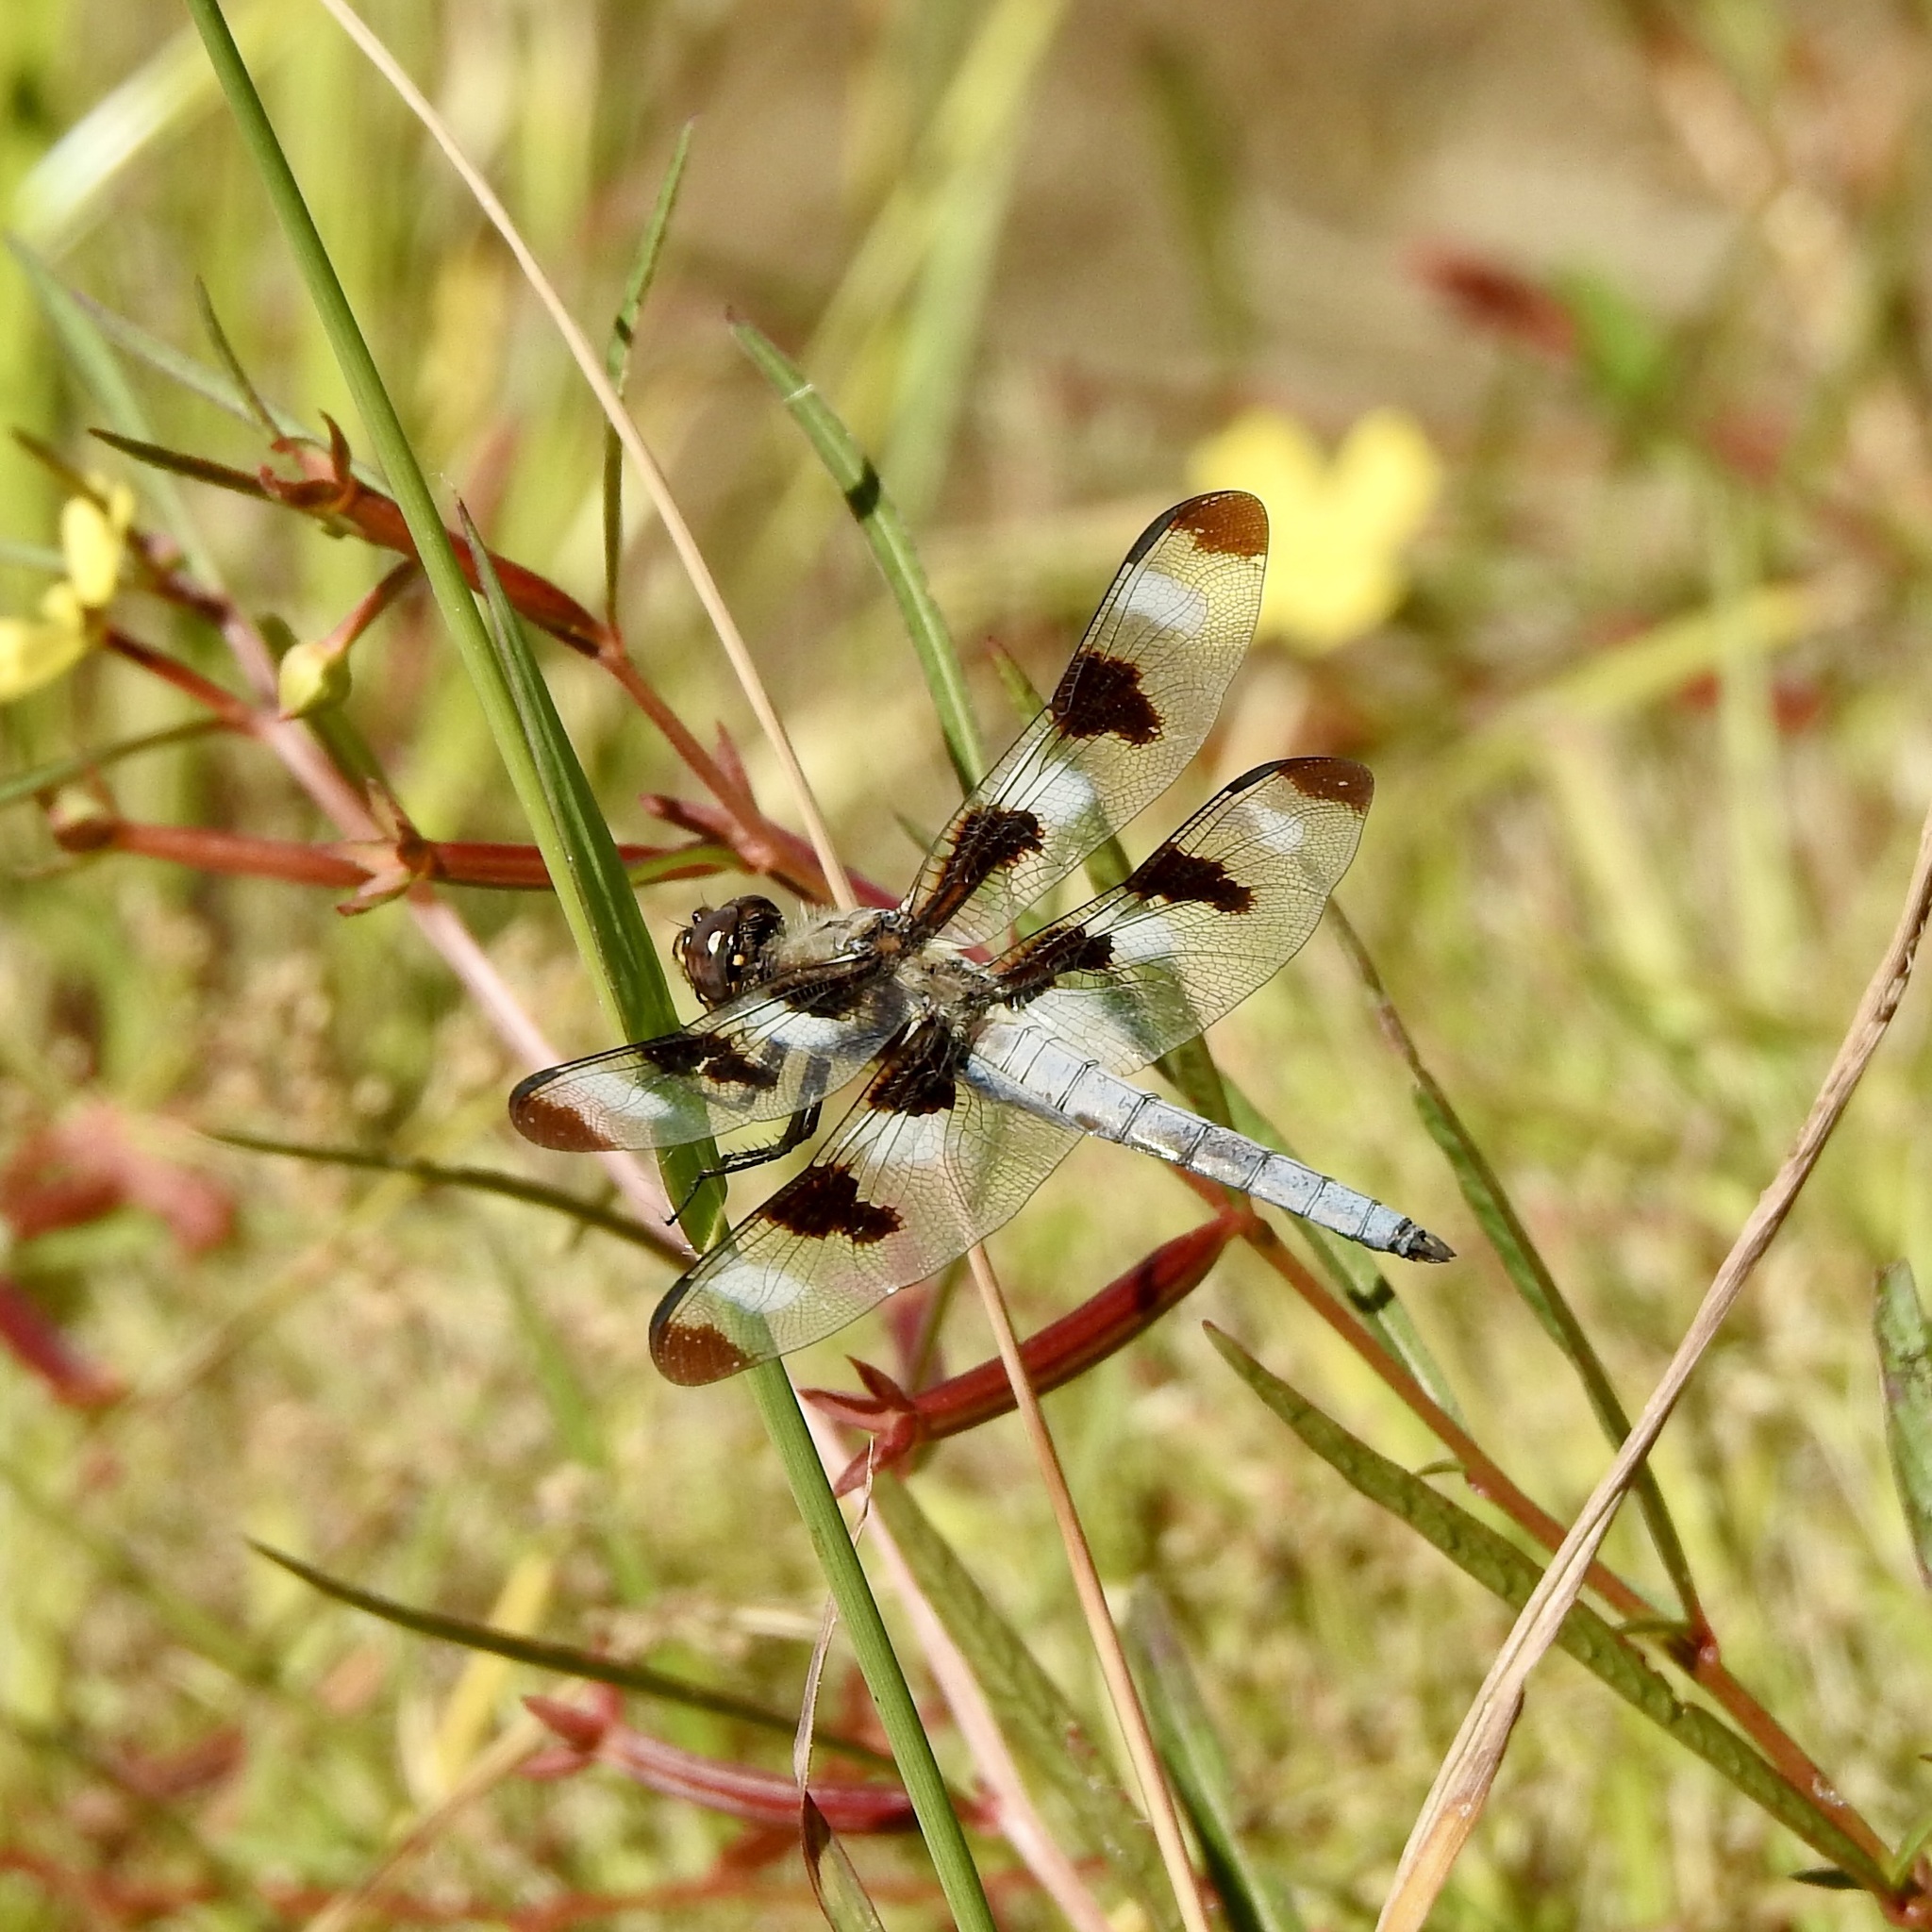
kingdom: Animalia
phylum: Arthropoda
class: Insecta
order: Odonata
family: Libellulidae
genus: Libellula
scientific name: Libellula pulchella
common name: Twelve-spotted skimmer
